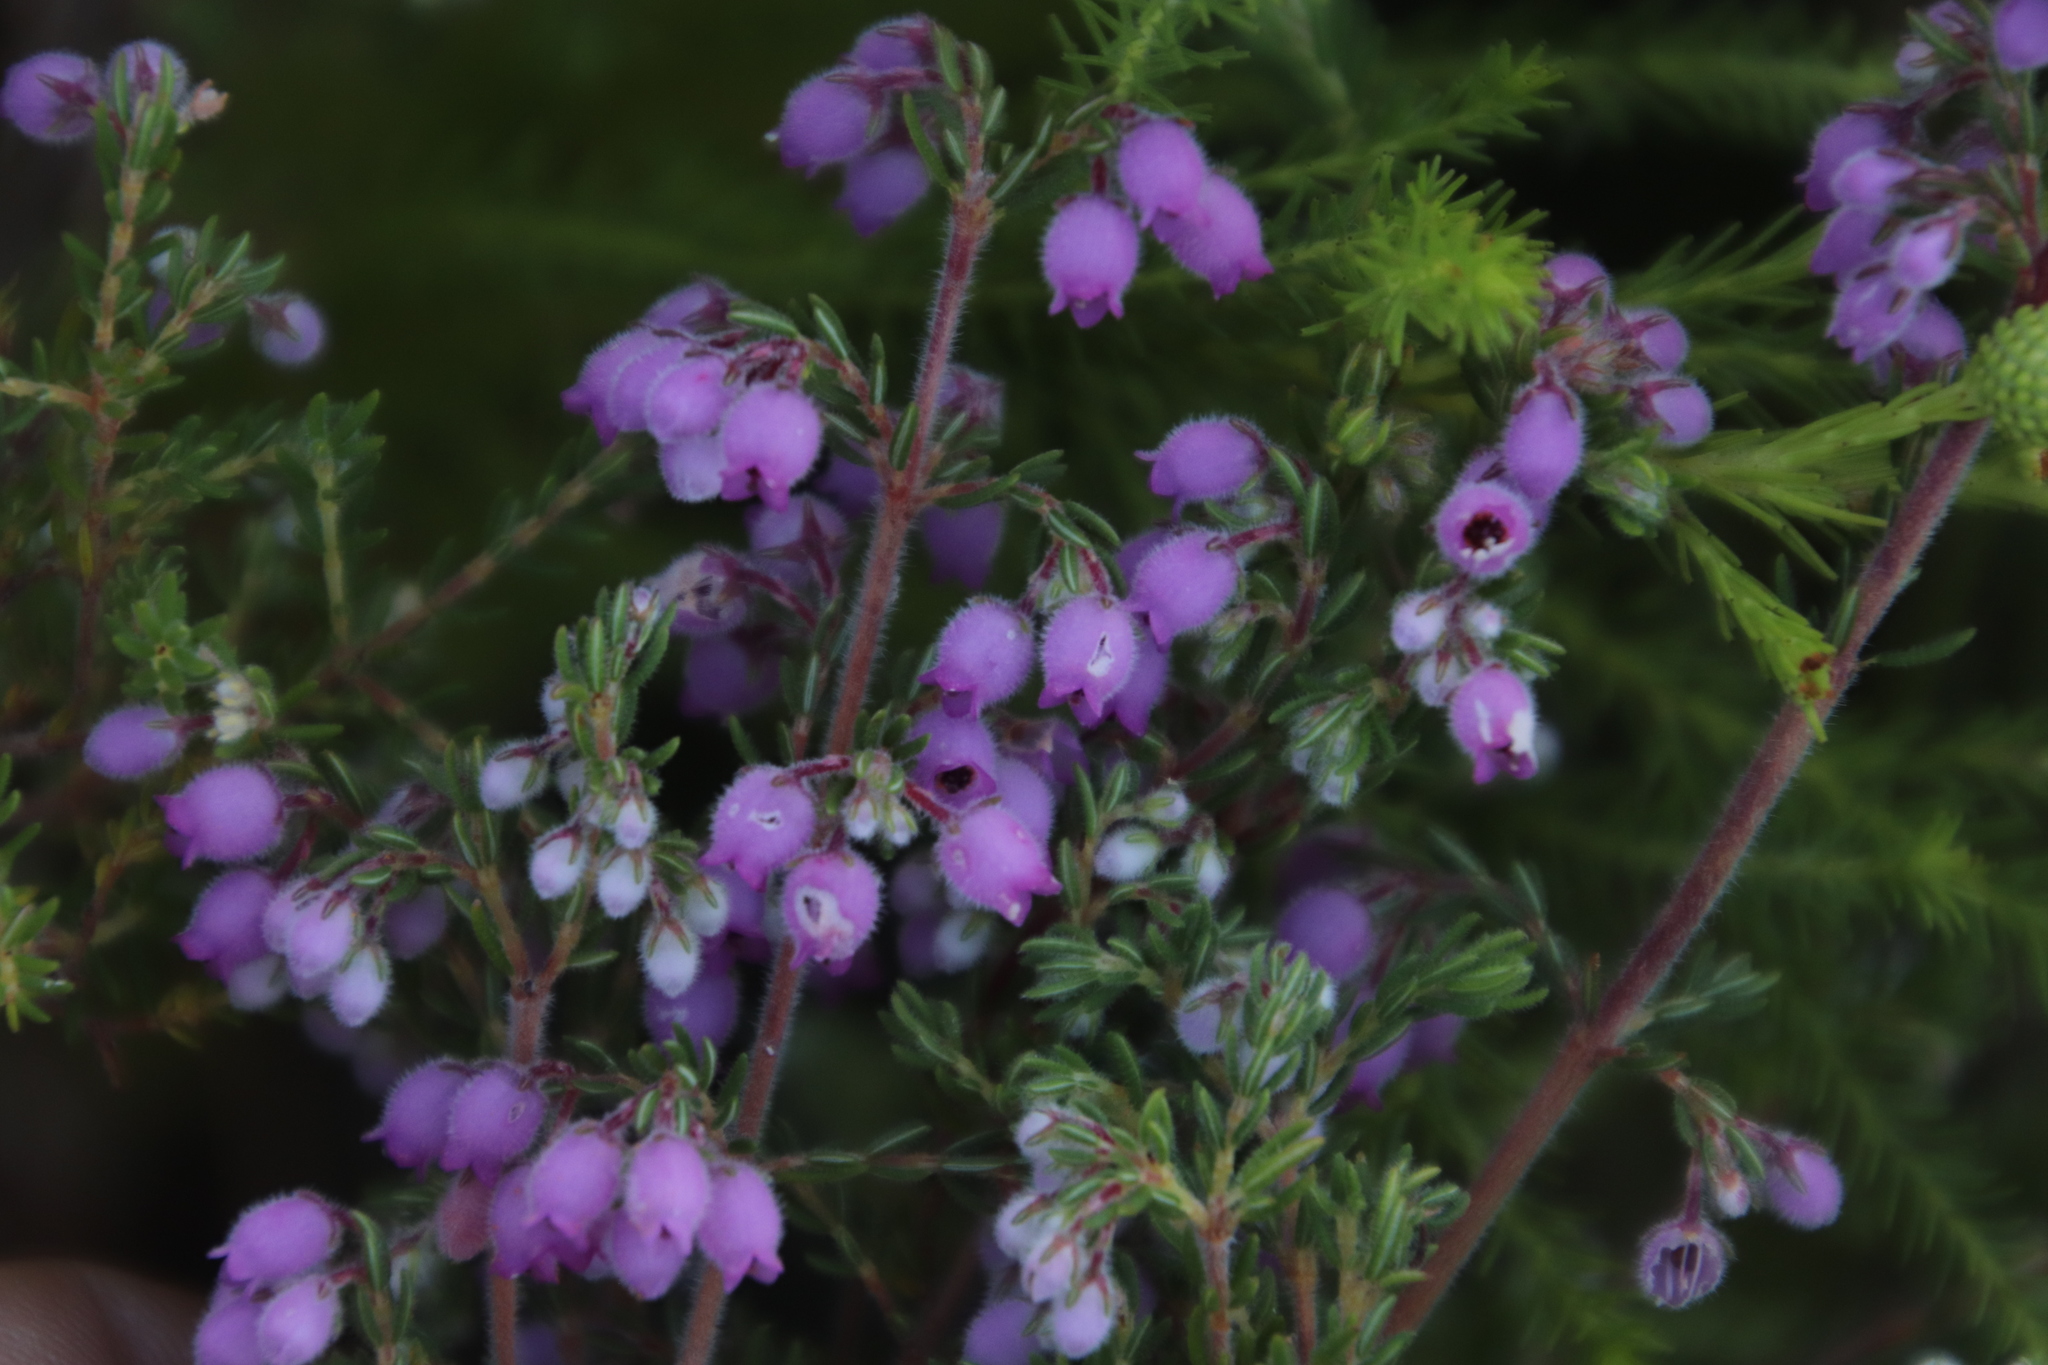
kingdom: Plantae
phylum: Tracheophyta
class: Magnoliopsida
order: Ericales
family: Ericaceae
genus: Erica
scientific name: Erica hirtiflora
